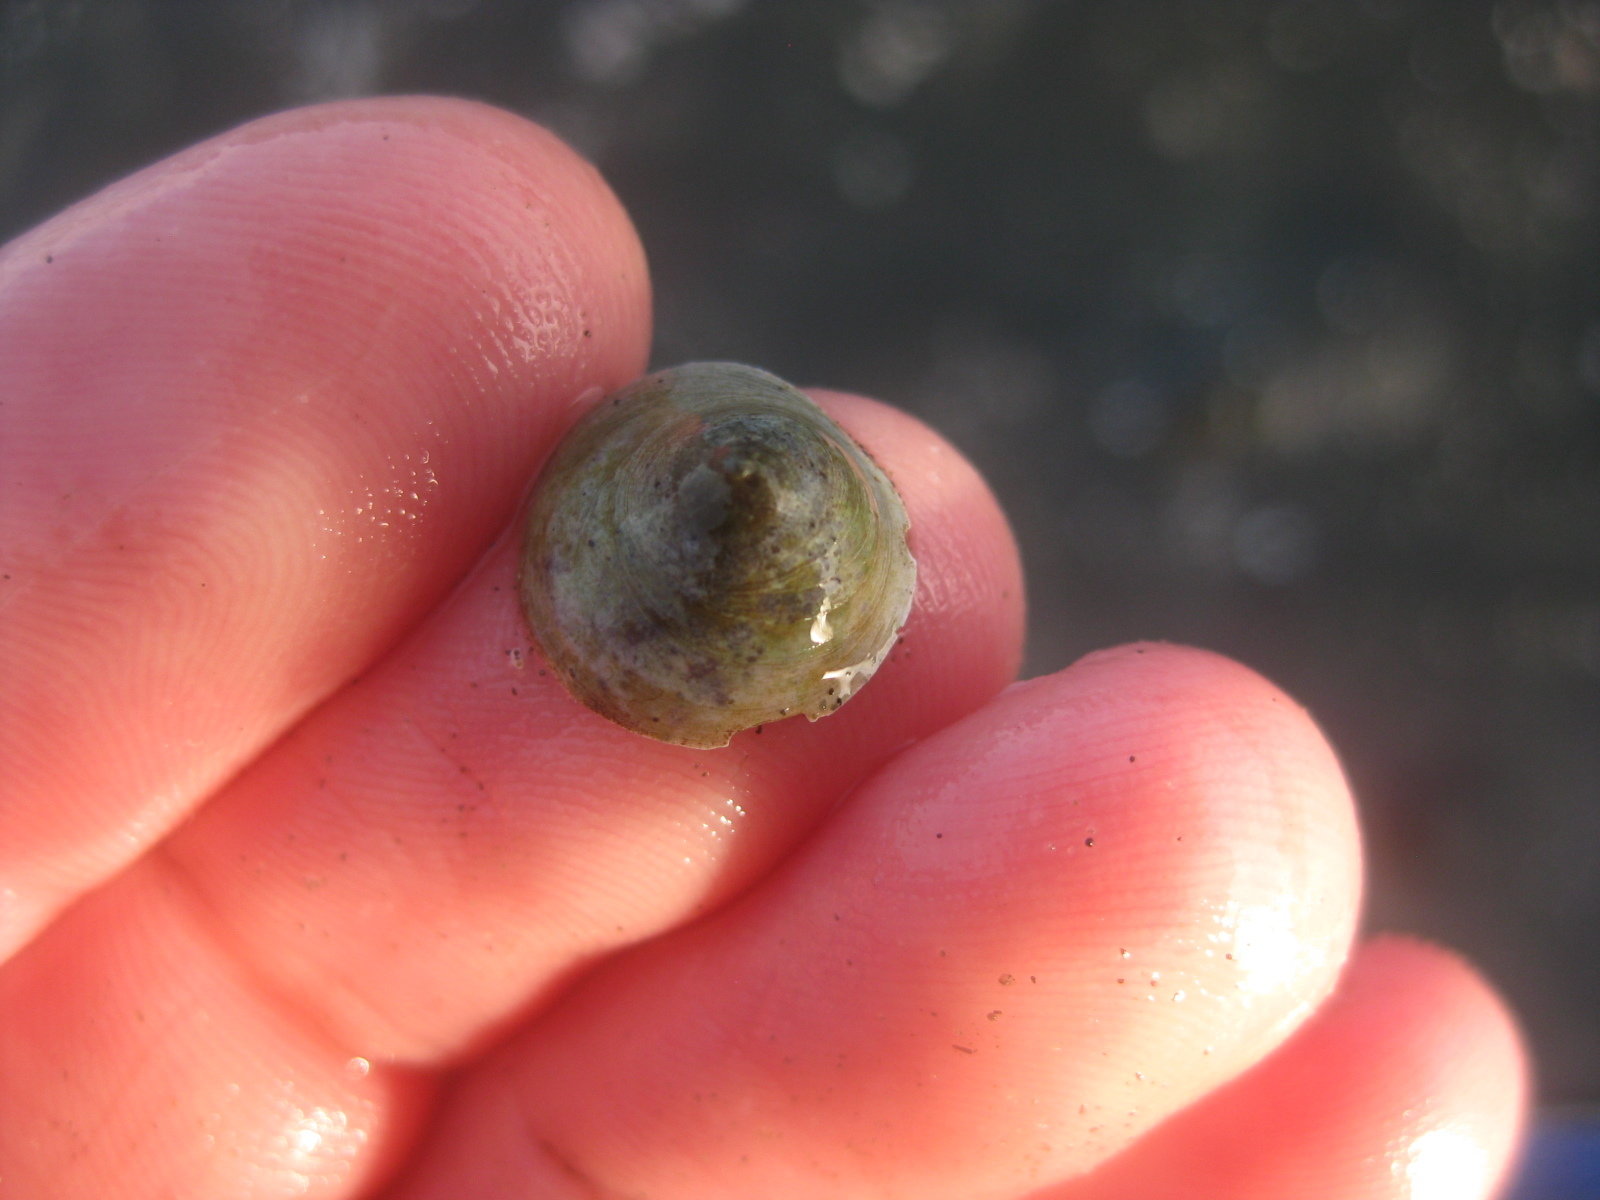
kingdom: Animalia
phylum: Mollusca
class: Gastropoda
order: Littorinimorpha
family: Calyptraeidae
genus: Sigapatella
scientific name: Sigapatella tenuis
